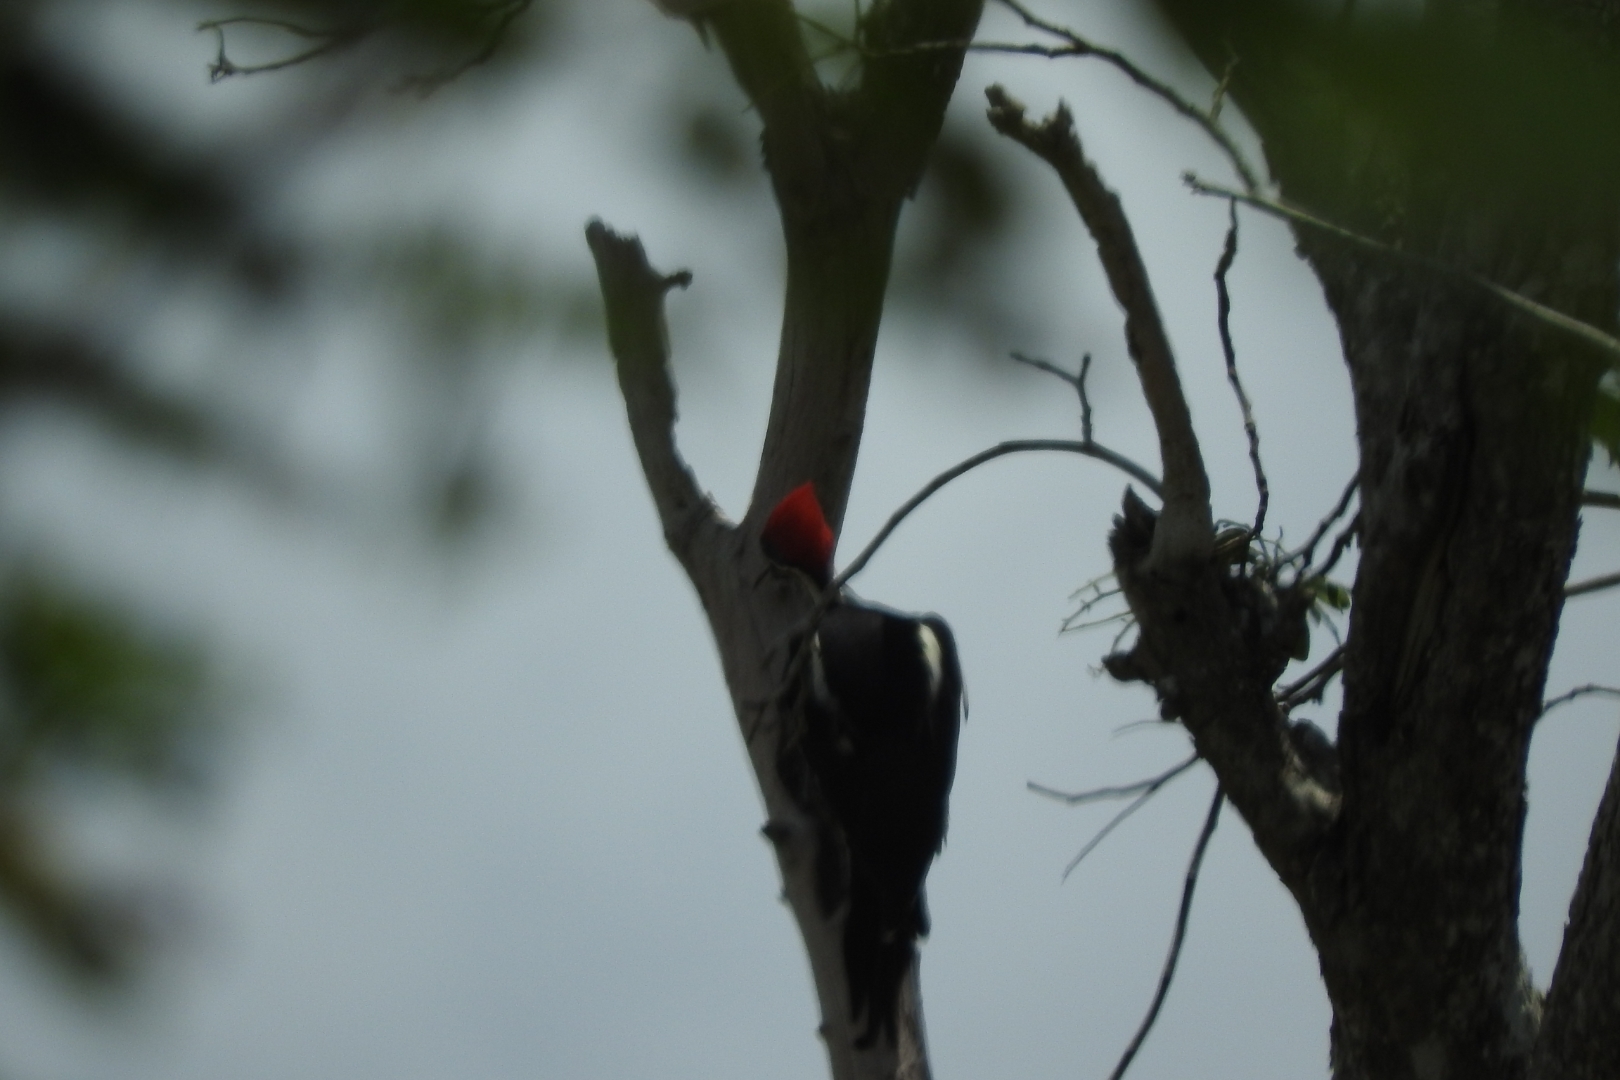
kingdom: Animalia
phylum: Chordata
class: Aves
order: Piciformes
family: Picidae
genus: Dryocopus
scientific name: Dryocopus lineatus
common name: Lineated woodpecker
